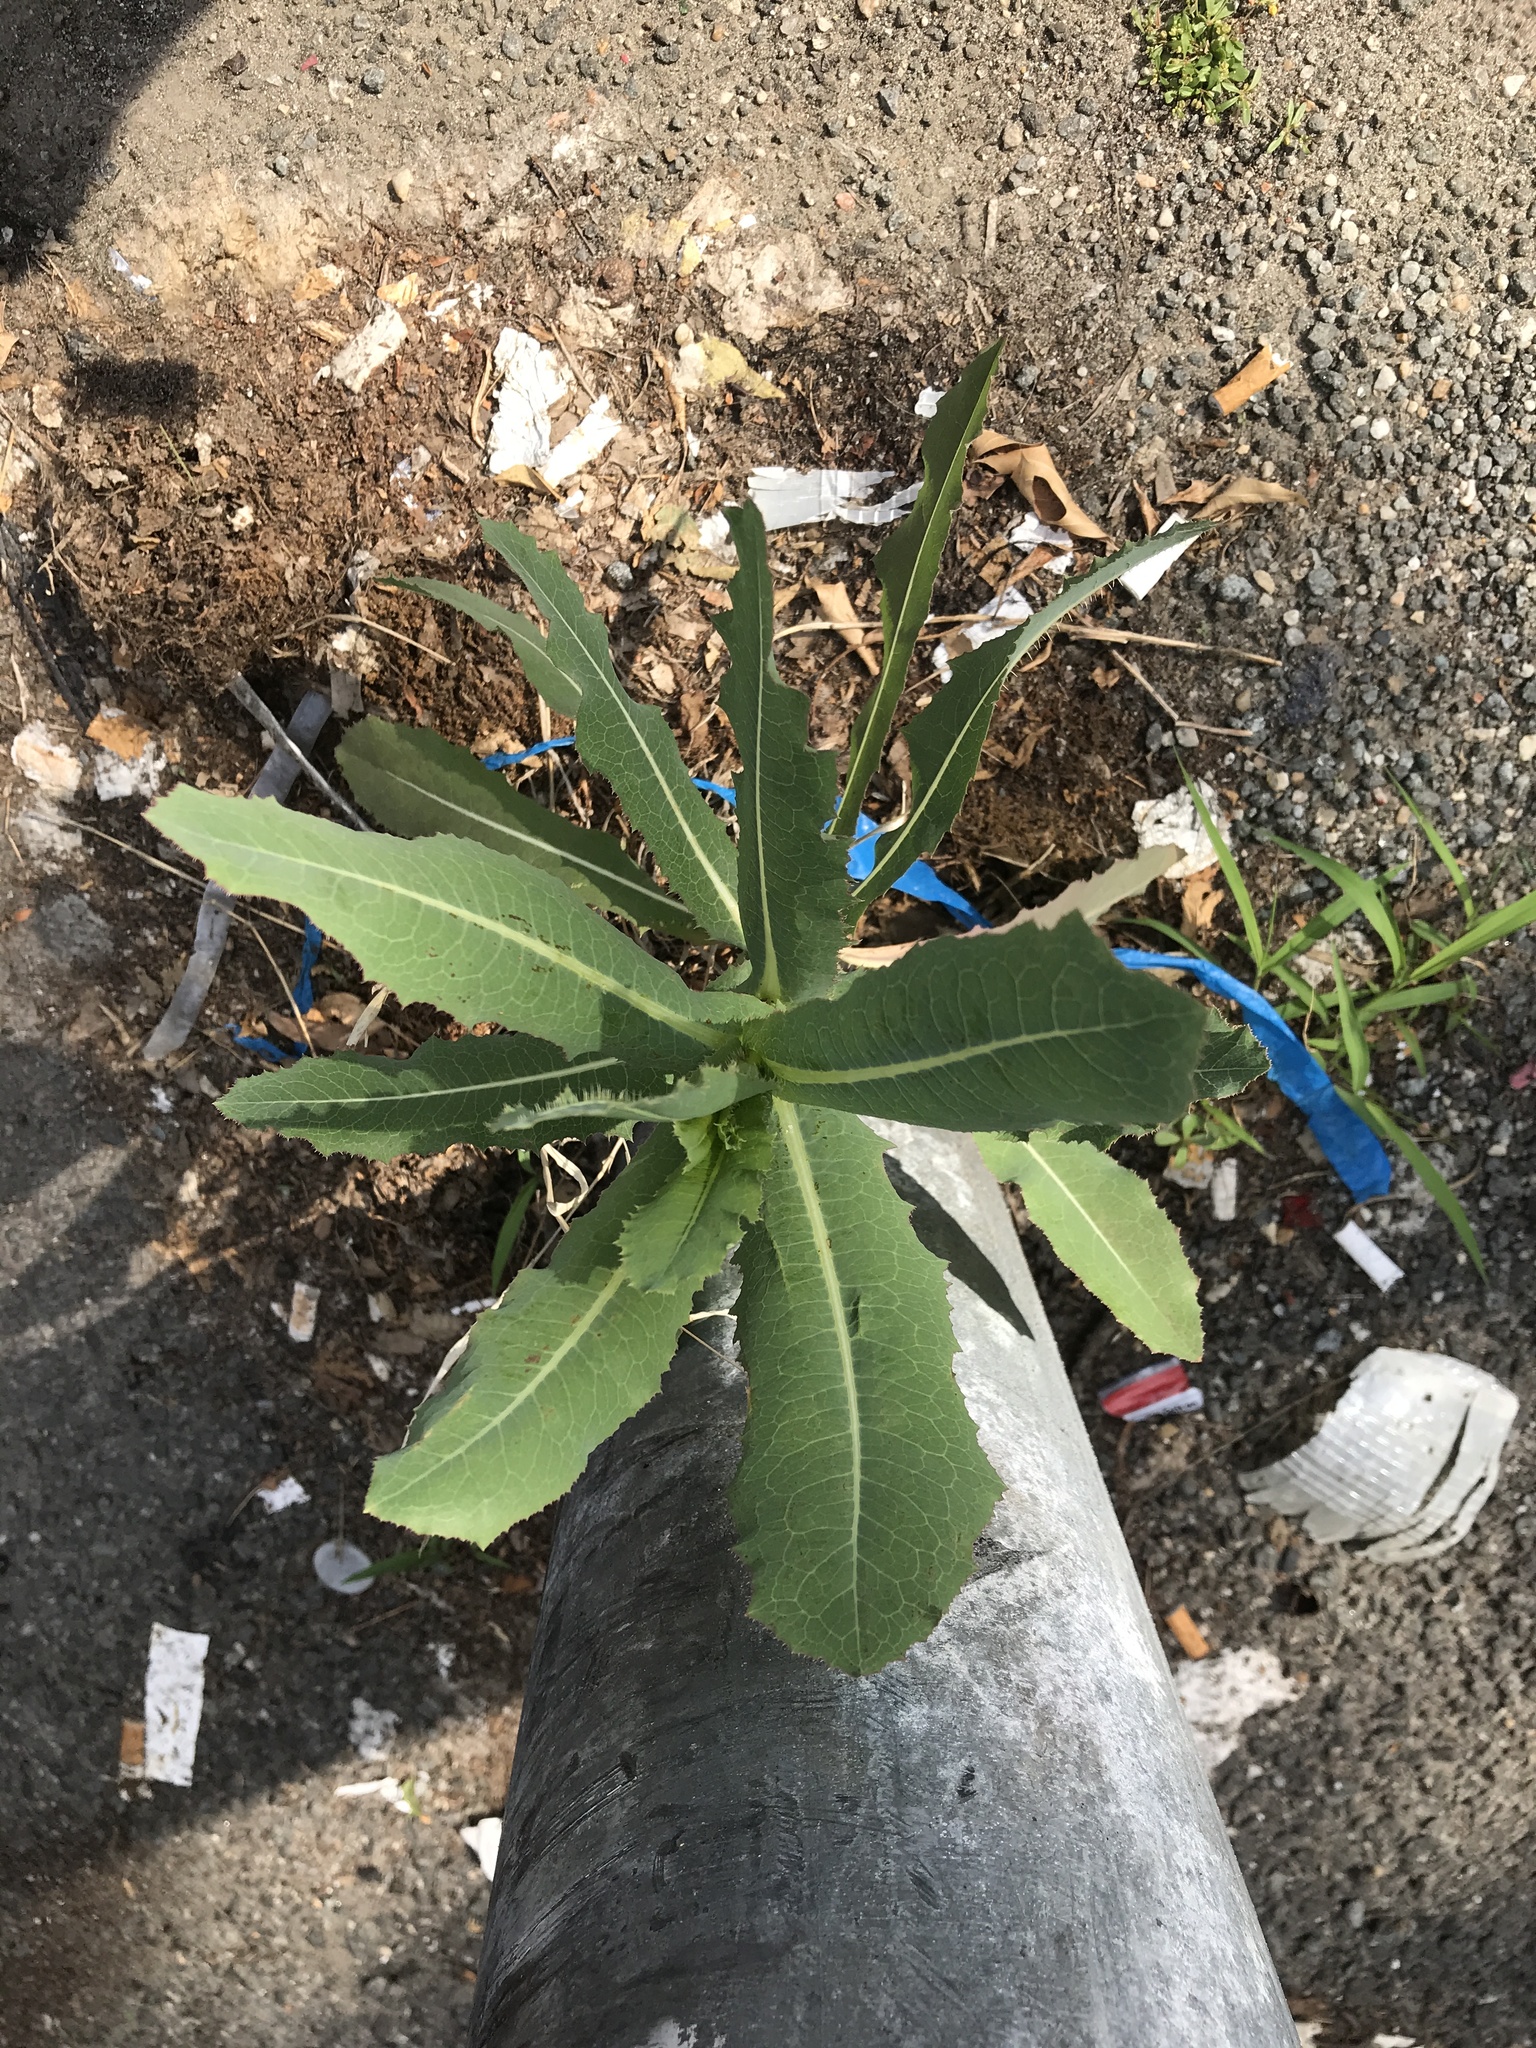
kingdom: Plantae
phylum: Tracheophyta
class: Magnoliopsida
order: Asterales
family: Asteraceae
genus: Lactuca
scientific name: Lactuca serriola
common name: Prickly lettuce
